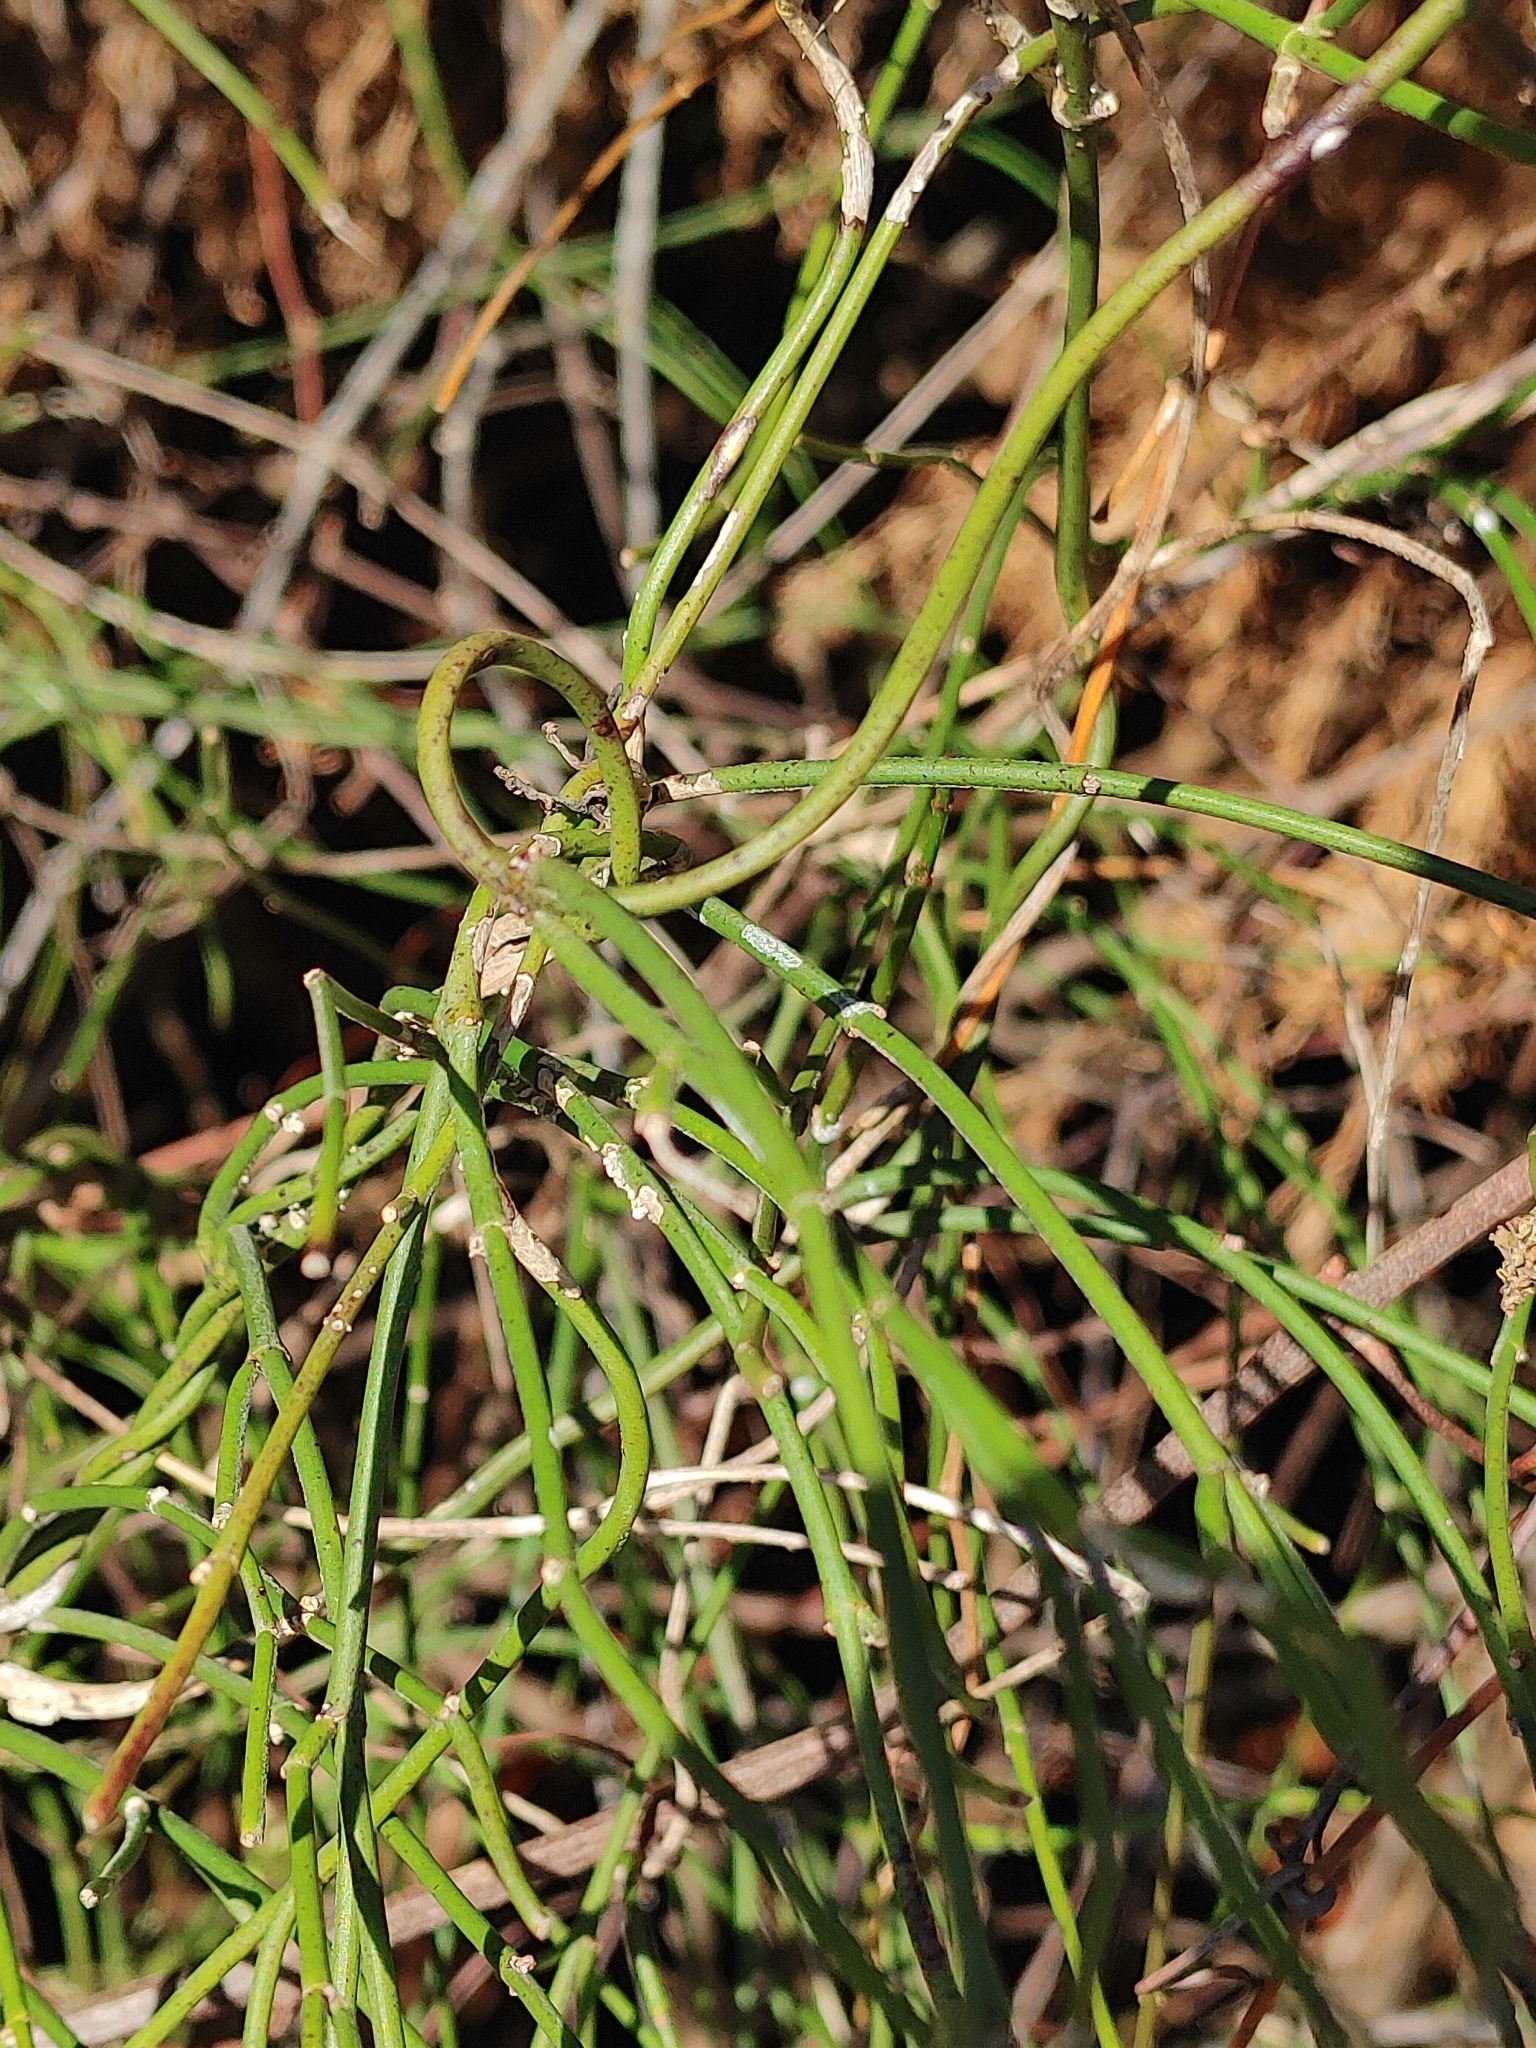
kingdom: Plantae
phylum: Tracheophyta
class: Magnoliopsida
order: Gentianales
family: Apocynaceae
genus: Orthosia
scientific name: Orthosia scoparia
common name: Leafless swallow-wort
